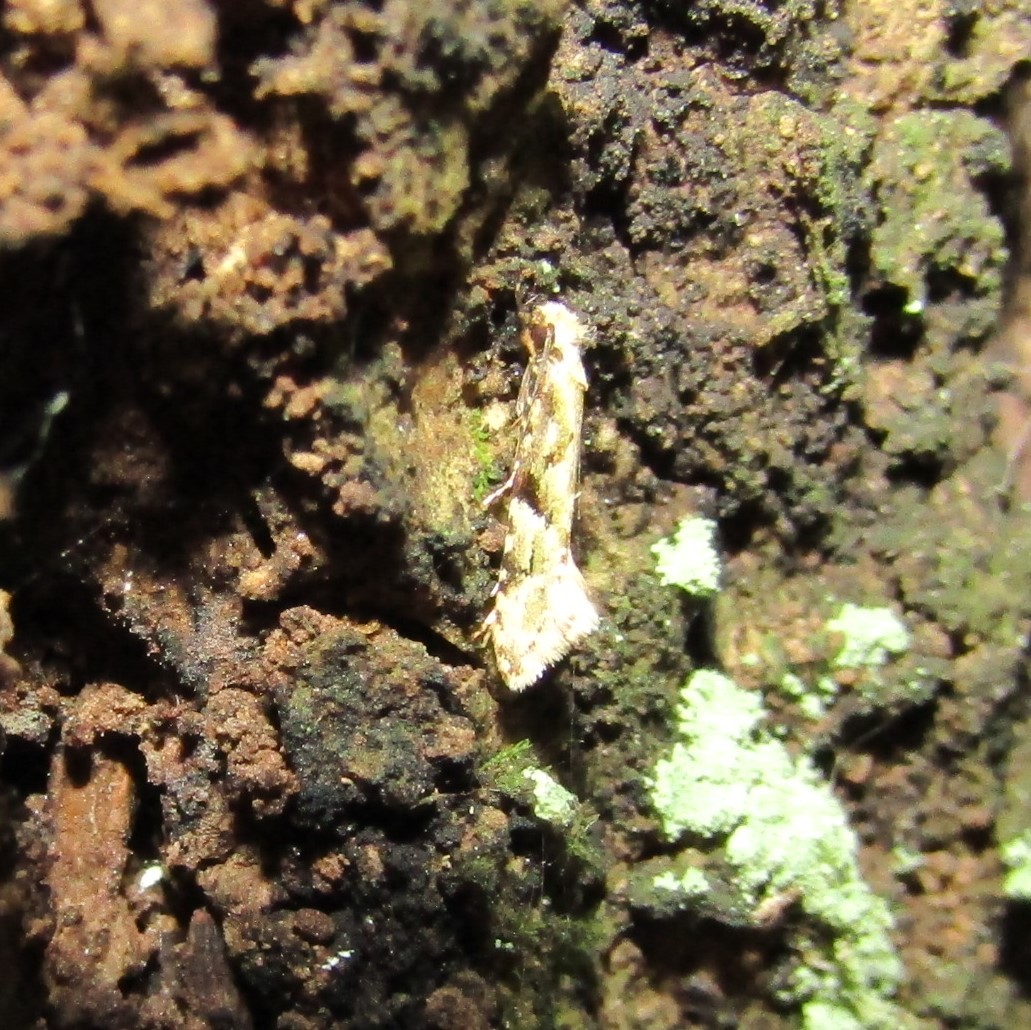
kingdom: Animalia
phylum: Arthropoda
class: Insecta
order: Lepidoptera
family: Tineidae
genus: Crypsitricha
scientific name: Crypsitricha mesotypa
